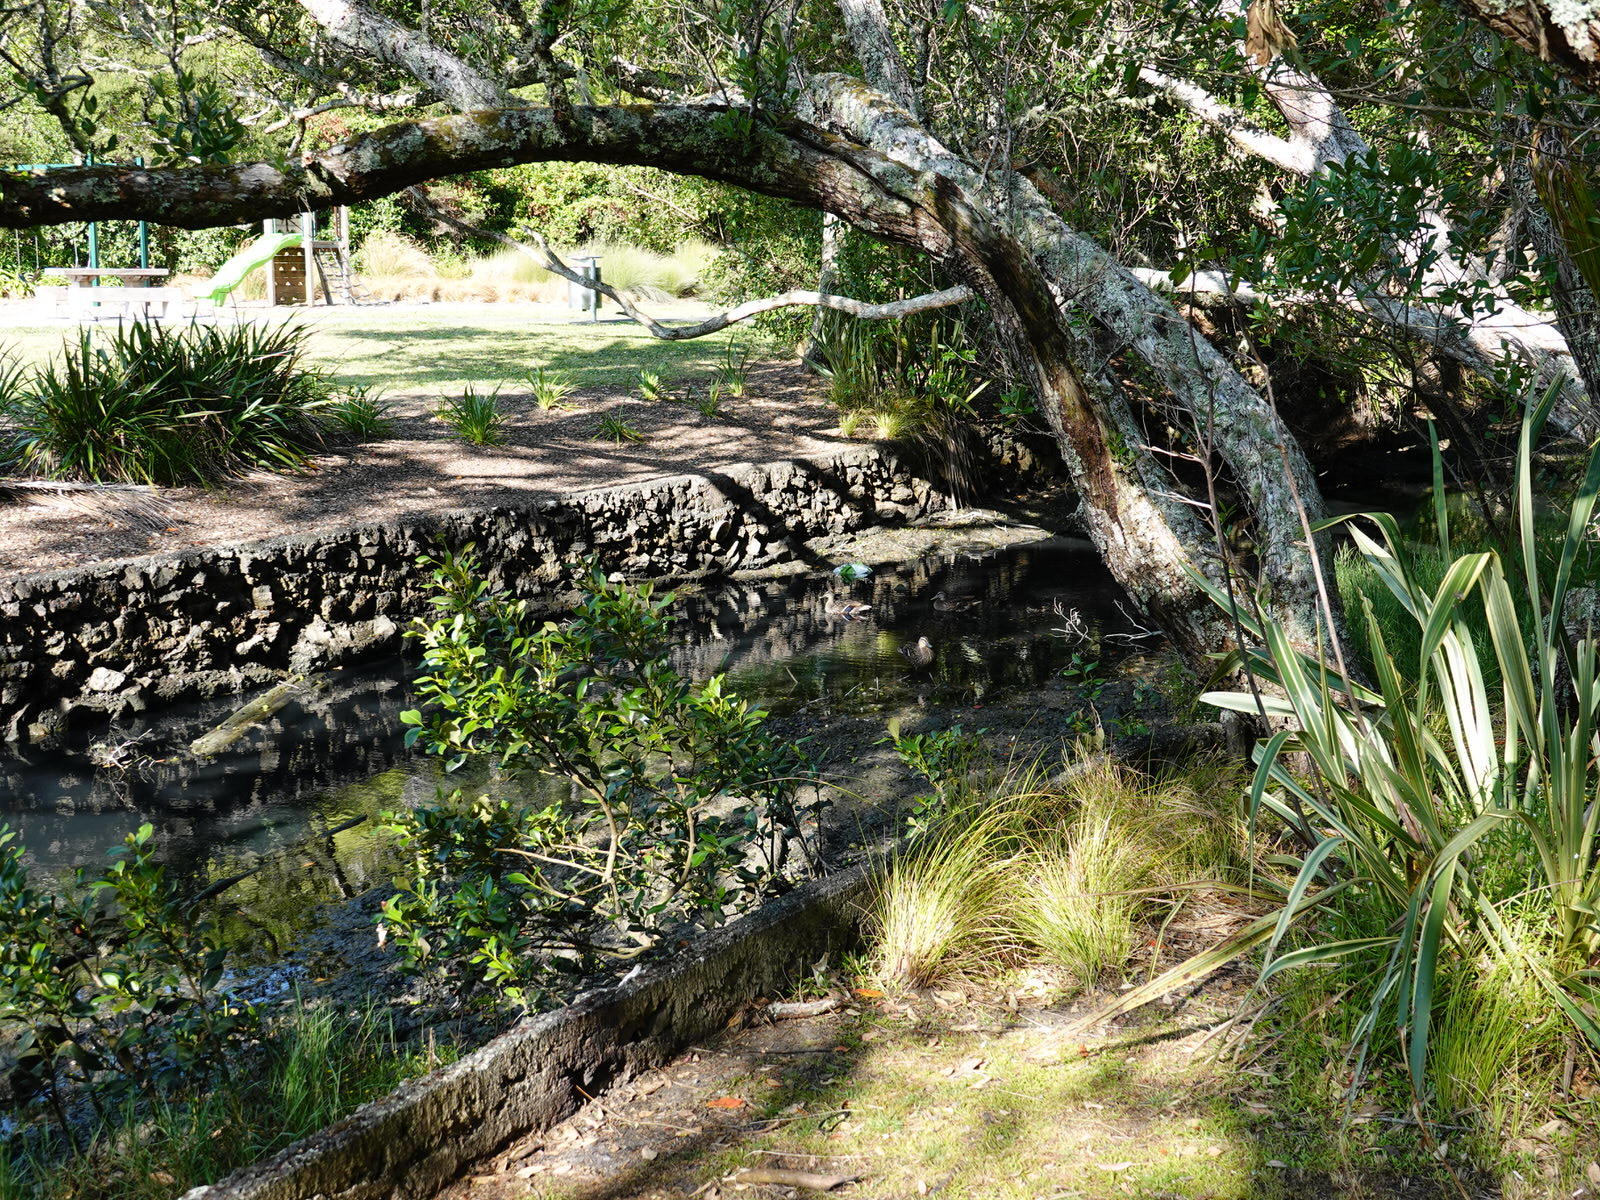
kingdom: Animalia
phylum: Chordata
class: Aves
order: Anseriformes
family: Anatidae
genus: Anas
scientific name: Anas
